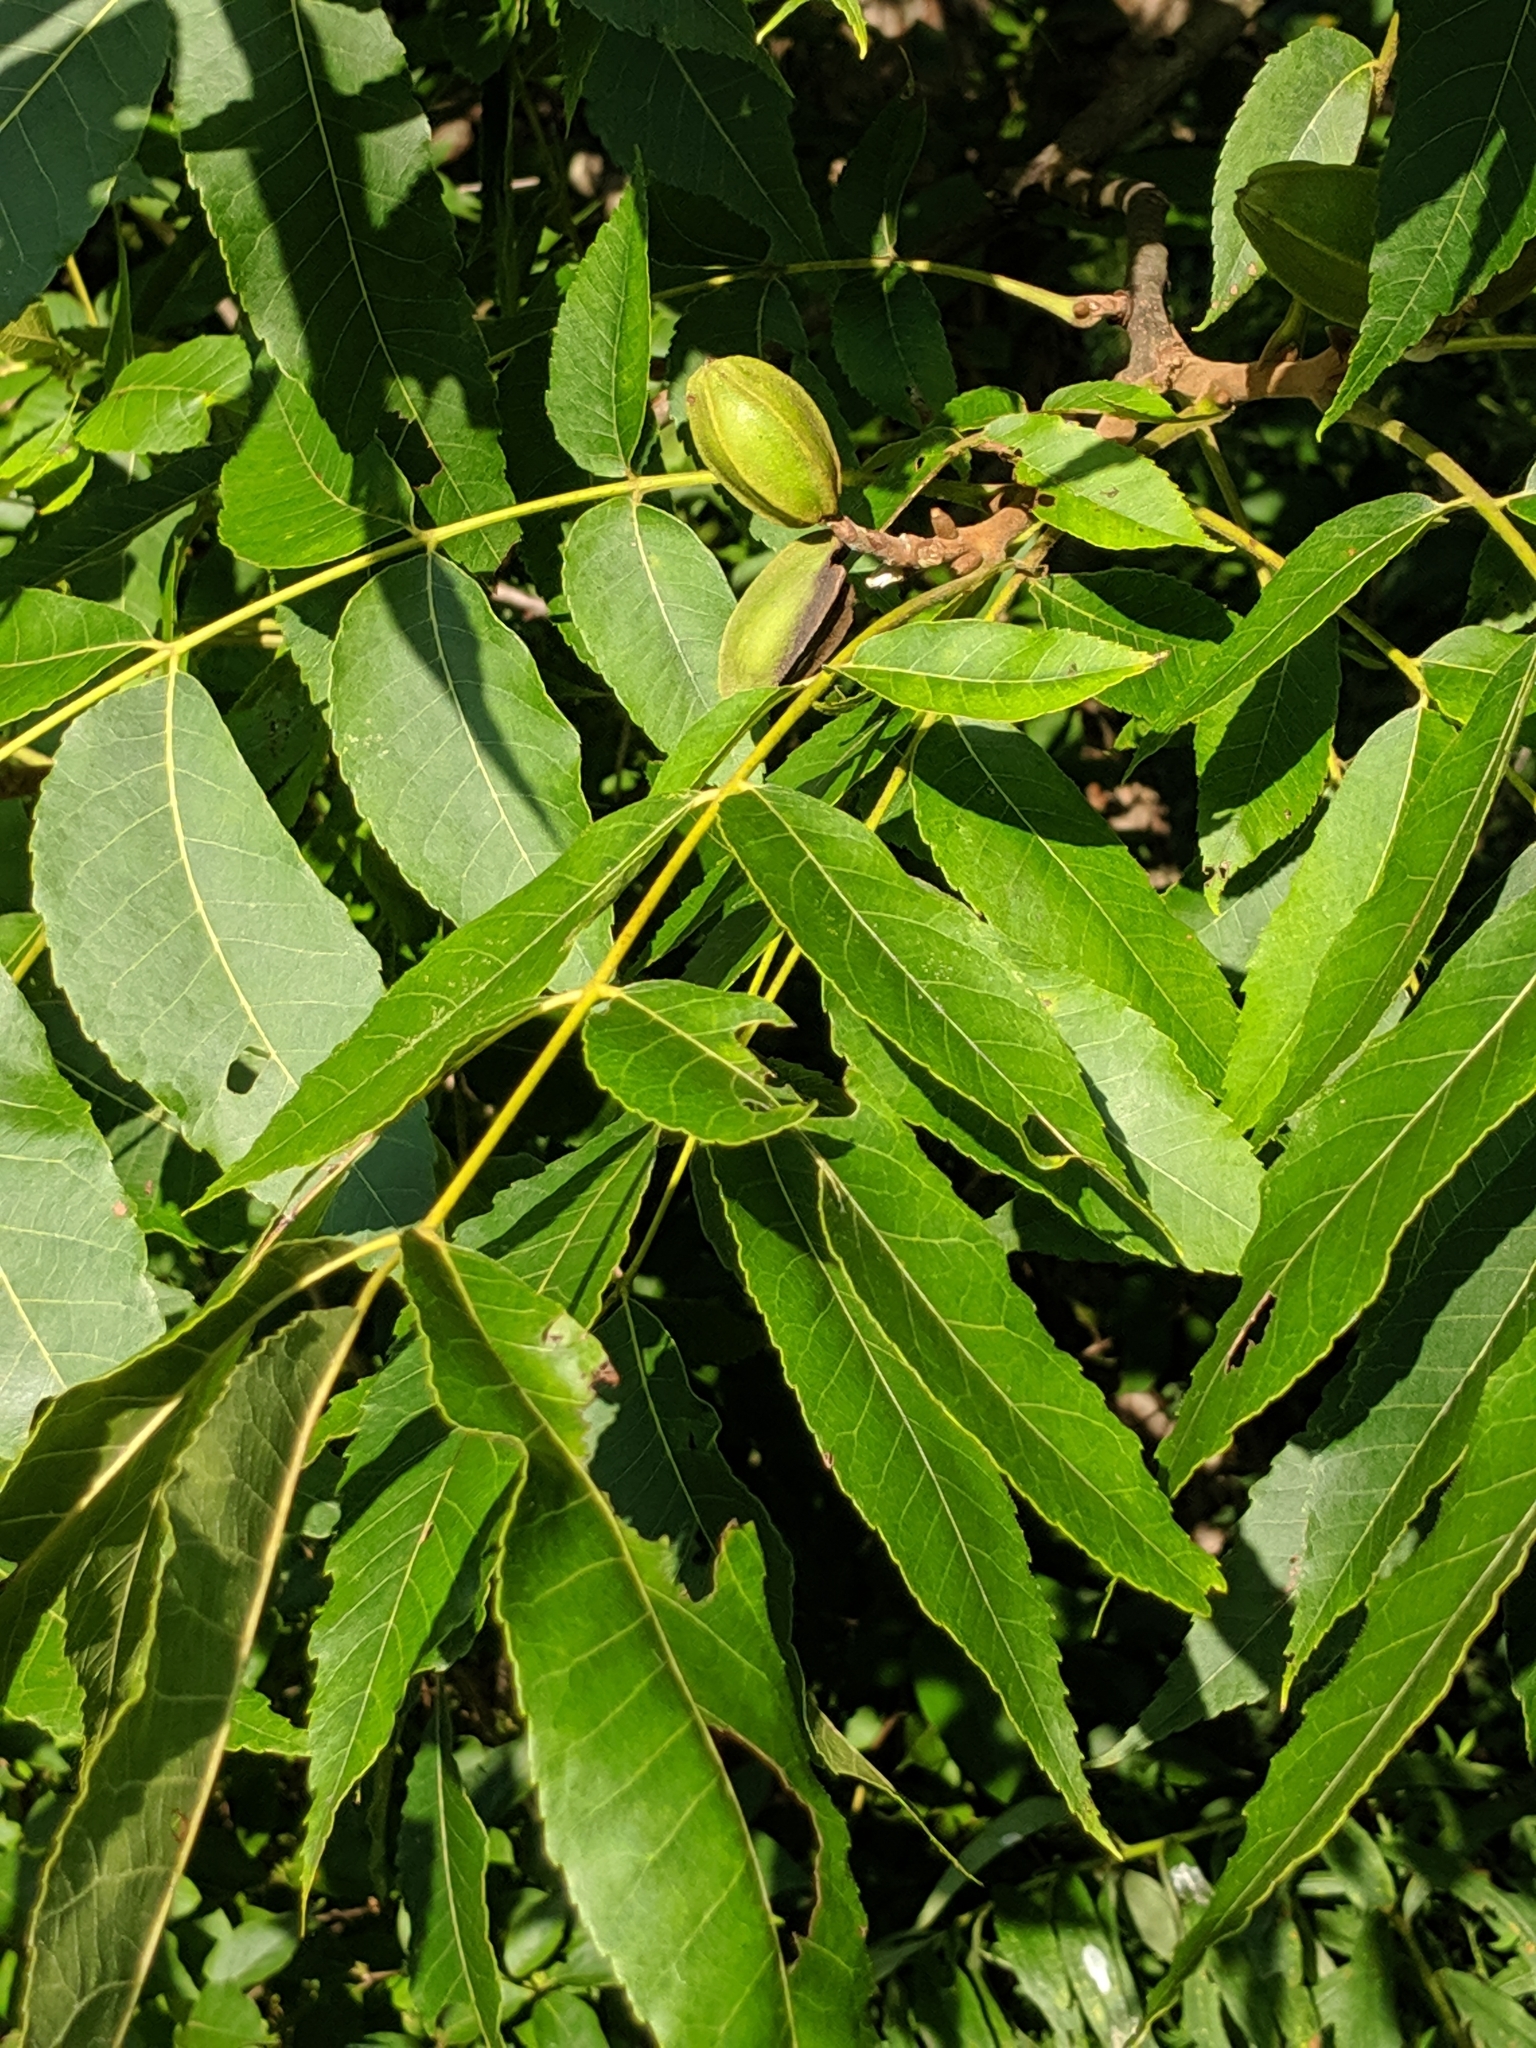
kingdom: Plantae
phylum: Tracheophyta
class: Magnoliopsida
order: Fagales
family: Juglandaceae
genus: Carya
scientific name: Carya cordiformis
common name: Bitternut hickory
